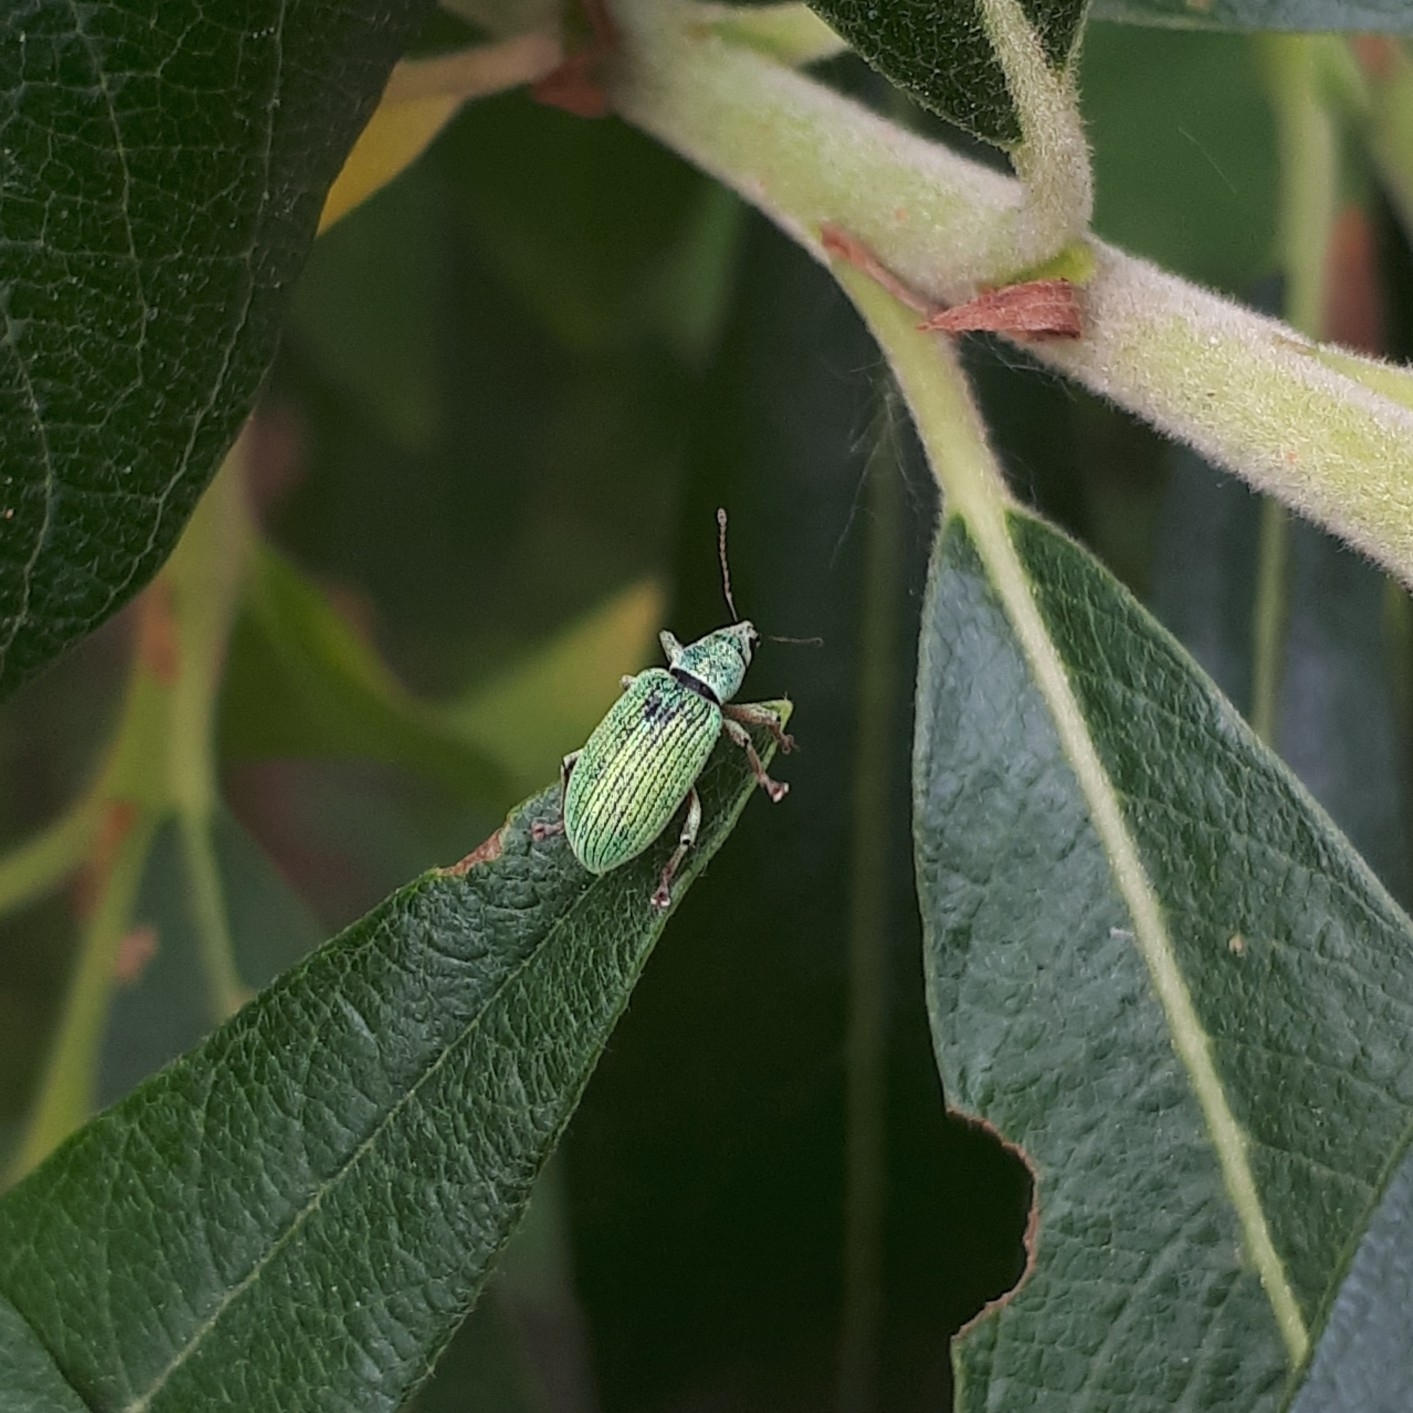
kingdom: Animalia
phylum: Arthropoda
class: Insecta
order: Coleoptera
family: Curculionidae
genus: Polydrusus
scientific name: Polydrusus formosus
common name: Weevil
